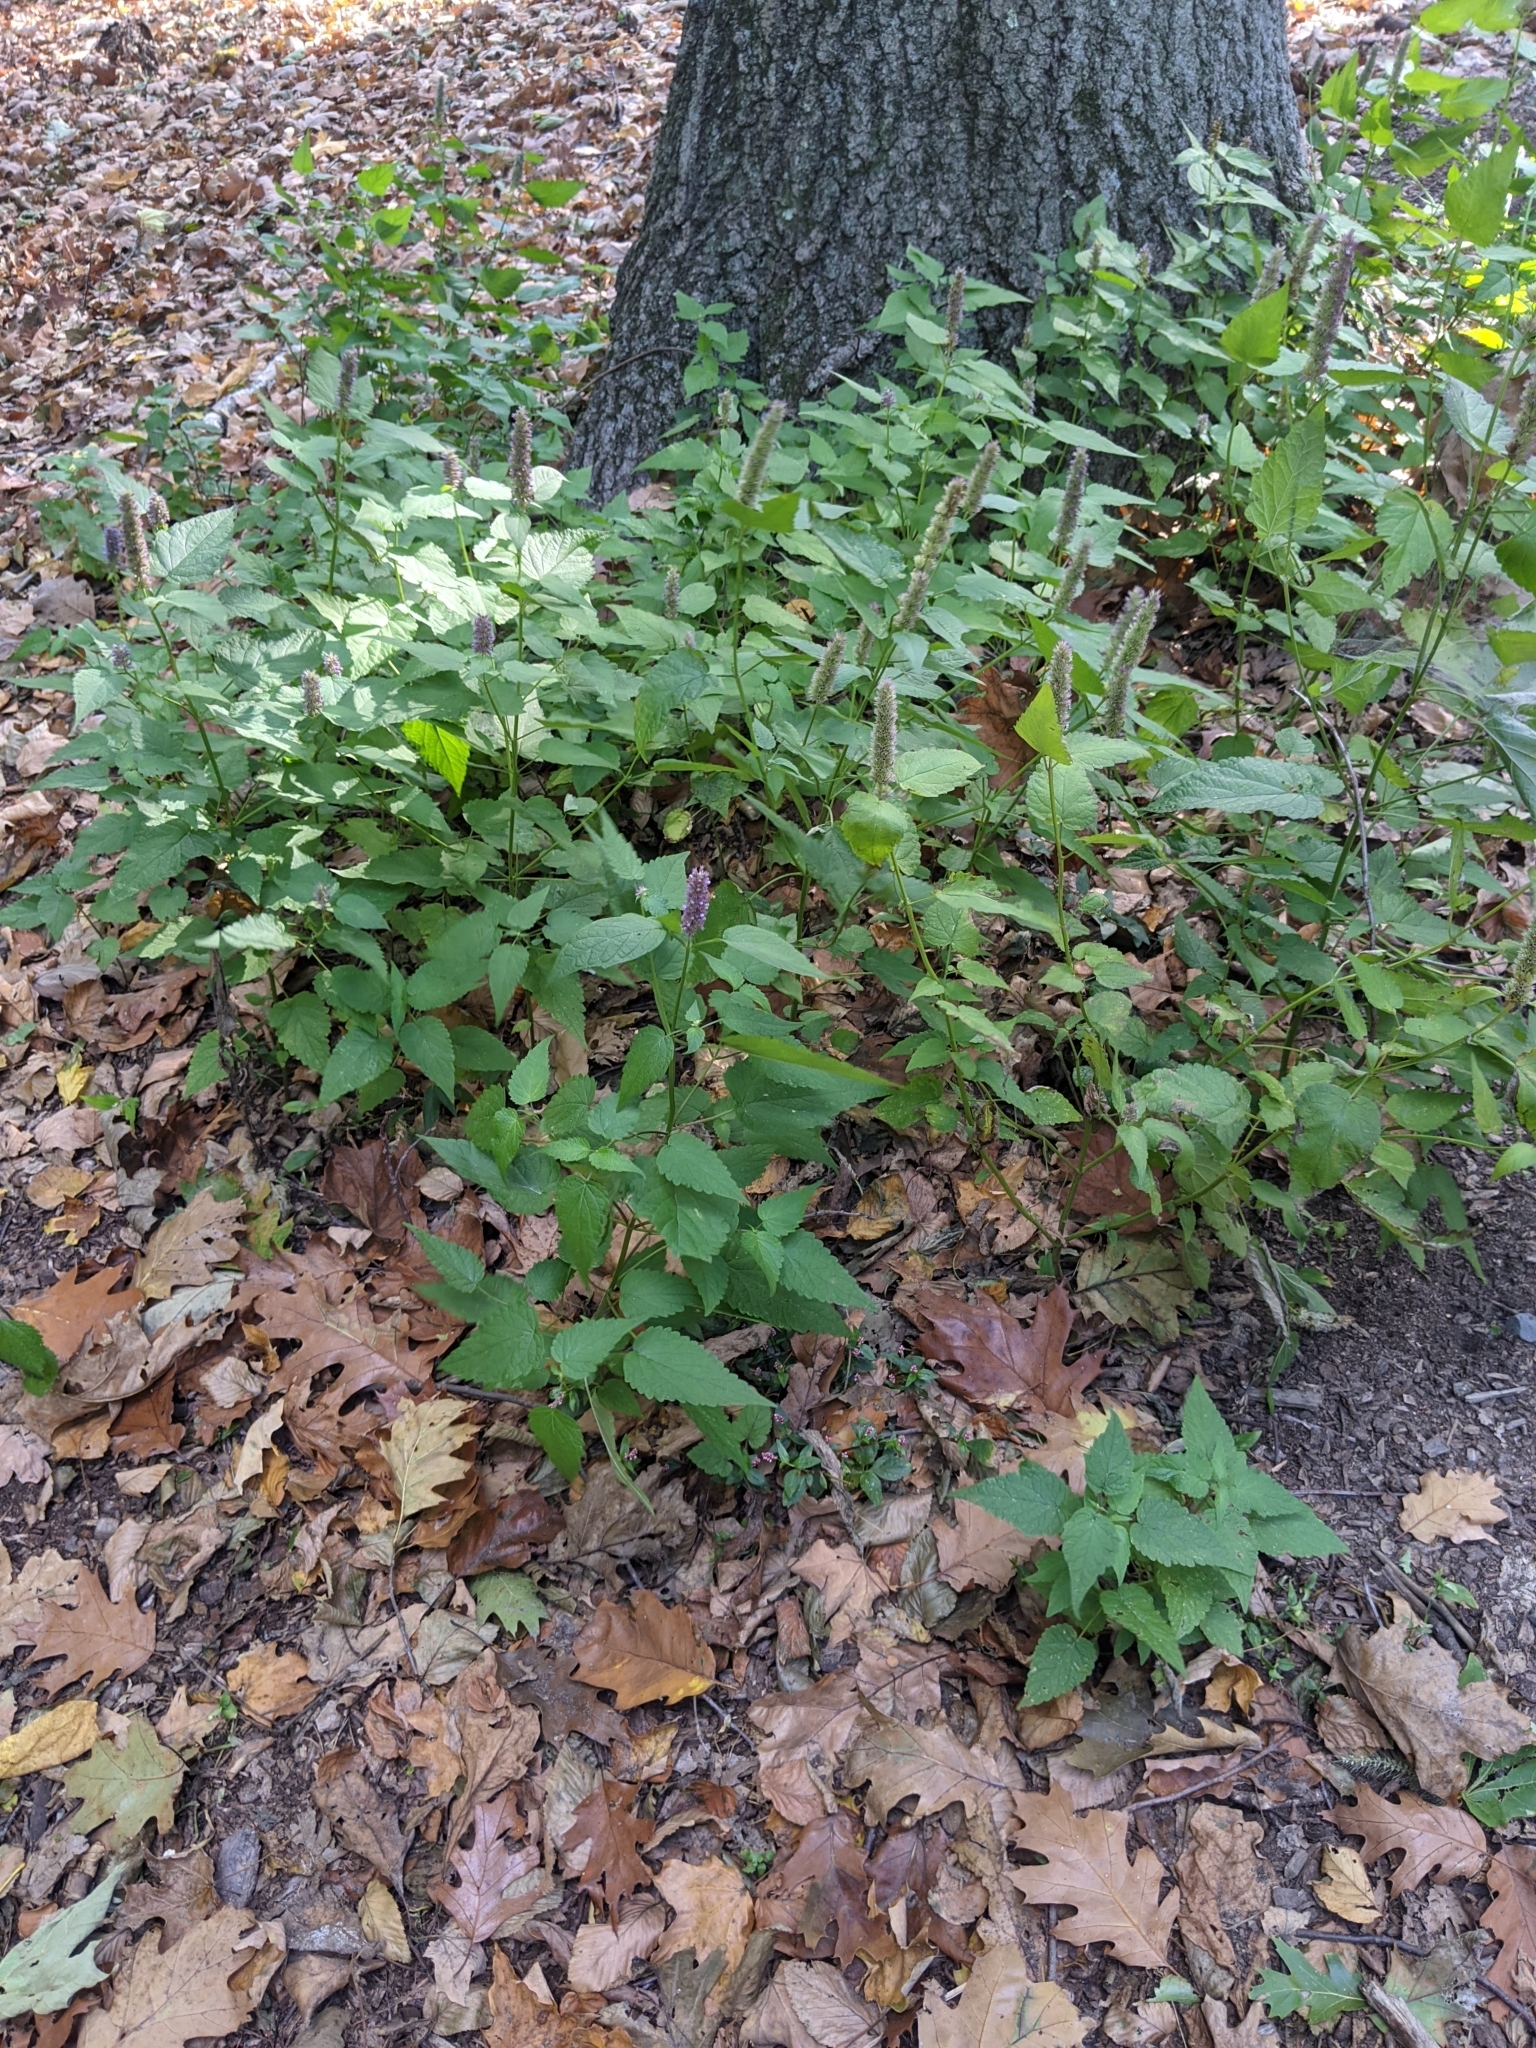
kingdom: Plantae
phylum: Tracheophyta
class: Magnoliopsida
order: Lamiales
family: Lamiaceae
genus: Agastache
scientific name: Agastache foeniculum
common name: Anise hyssop
